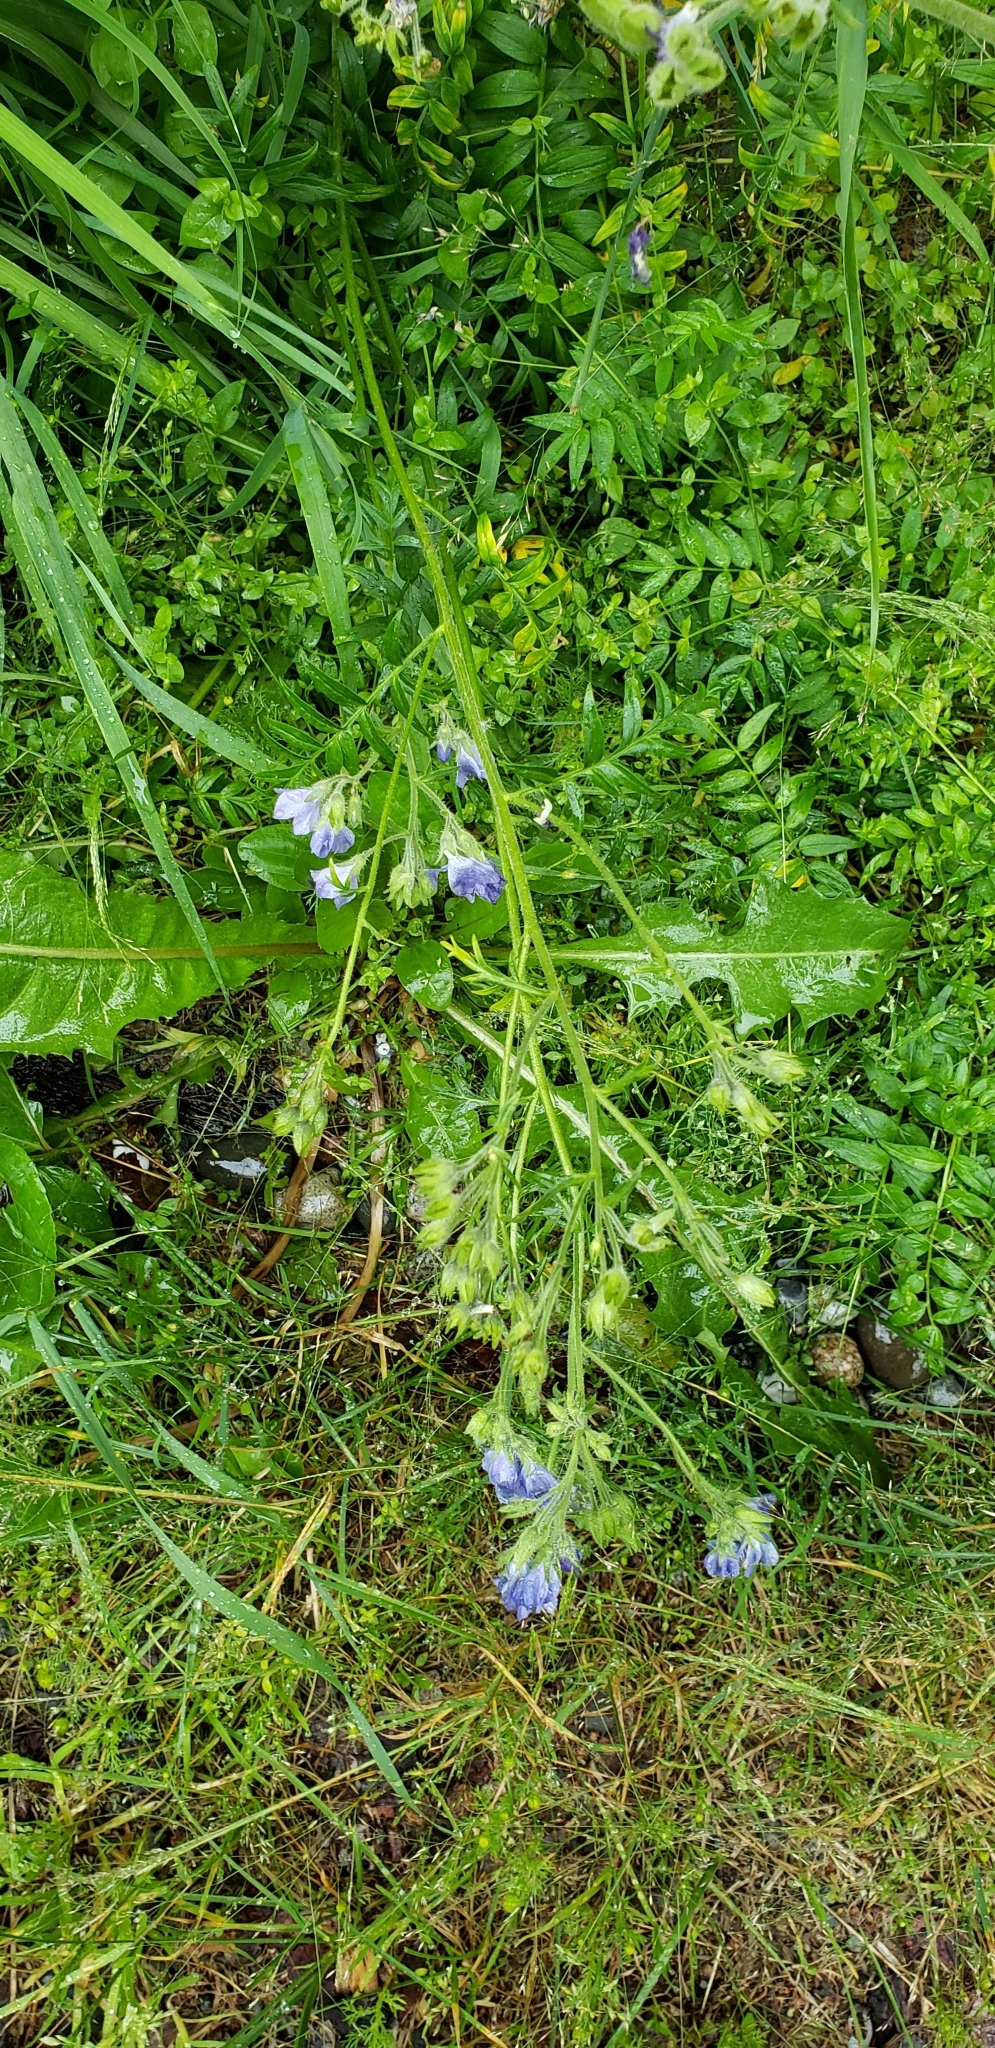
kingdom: Plantae
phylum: Tracheophyta
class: Magnoliopsida
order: Ericales
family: Polemoniaceae
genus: Polemonium
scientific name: Polemonium acutiflorum
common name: Tall jacob's-ladder
